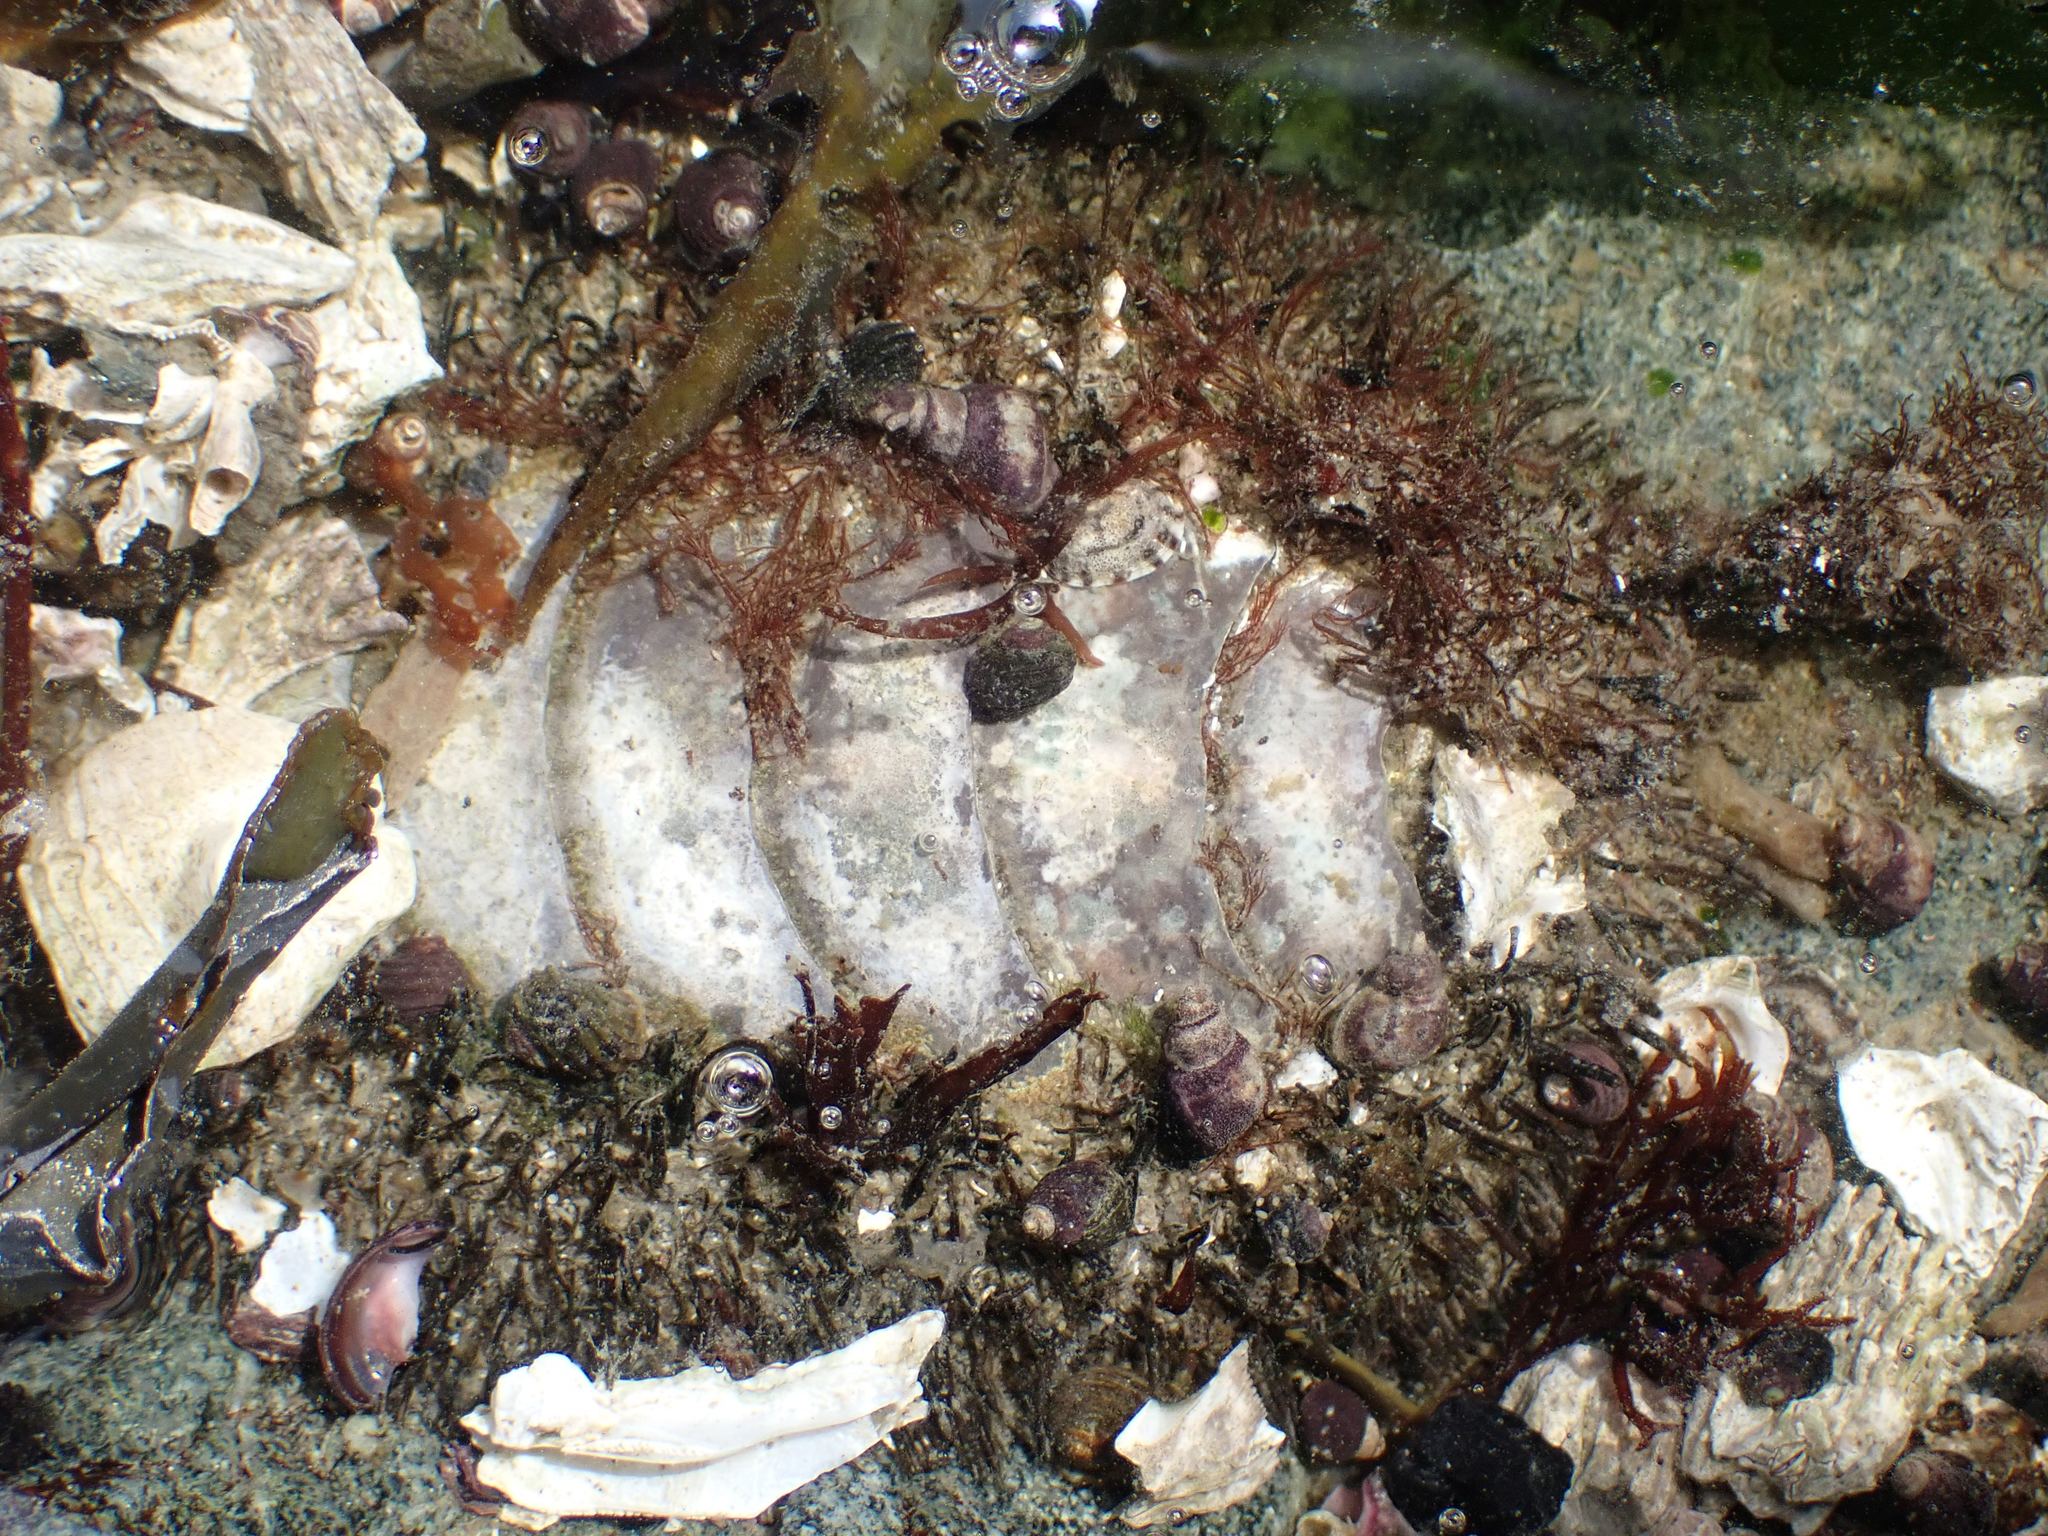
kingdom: Animalia
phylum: Mollusca
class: Polyplacophora
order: Chitonida
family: Mopaliidae
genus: Mopalia
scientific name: Mopalia muscosa
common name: Mossy chiton
